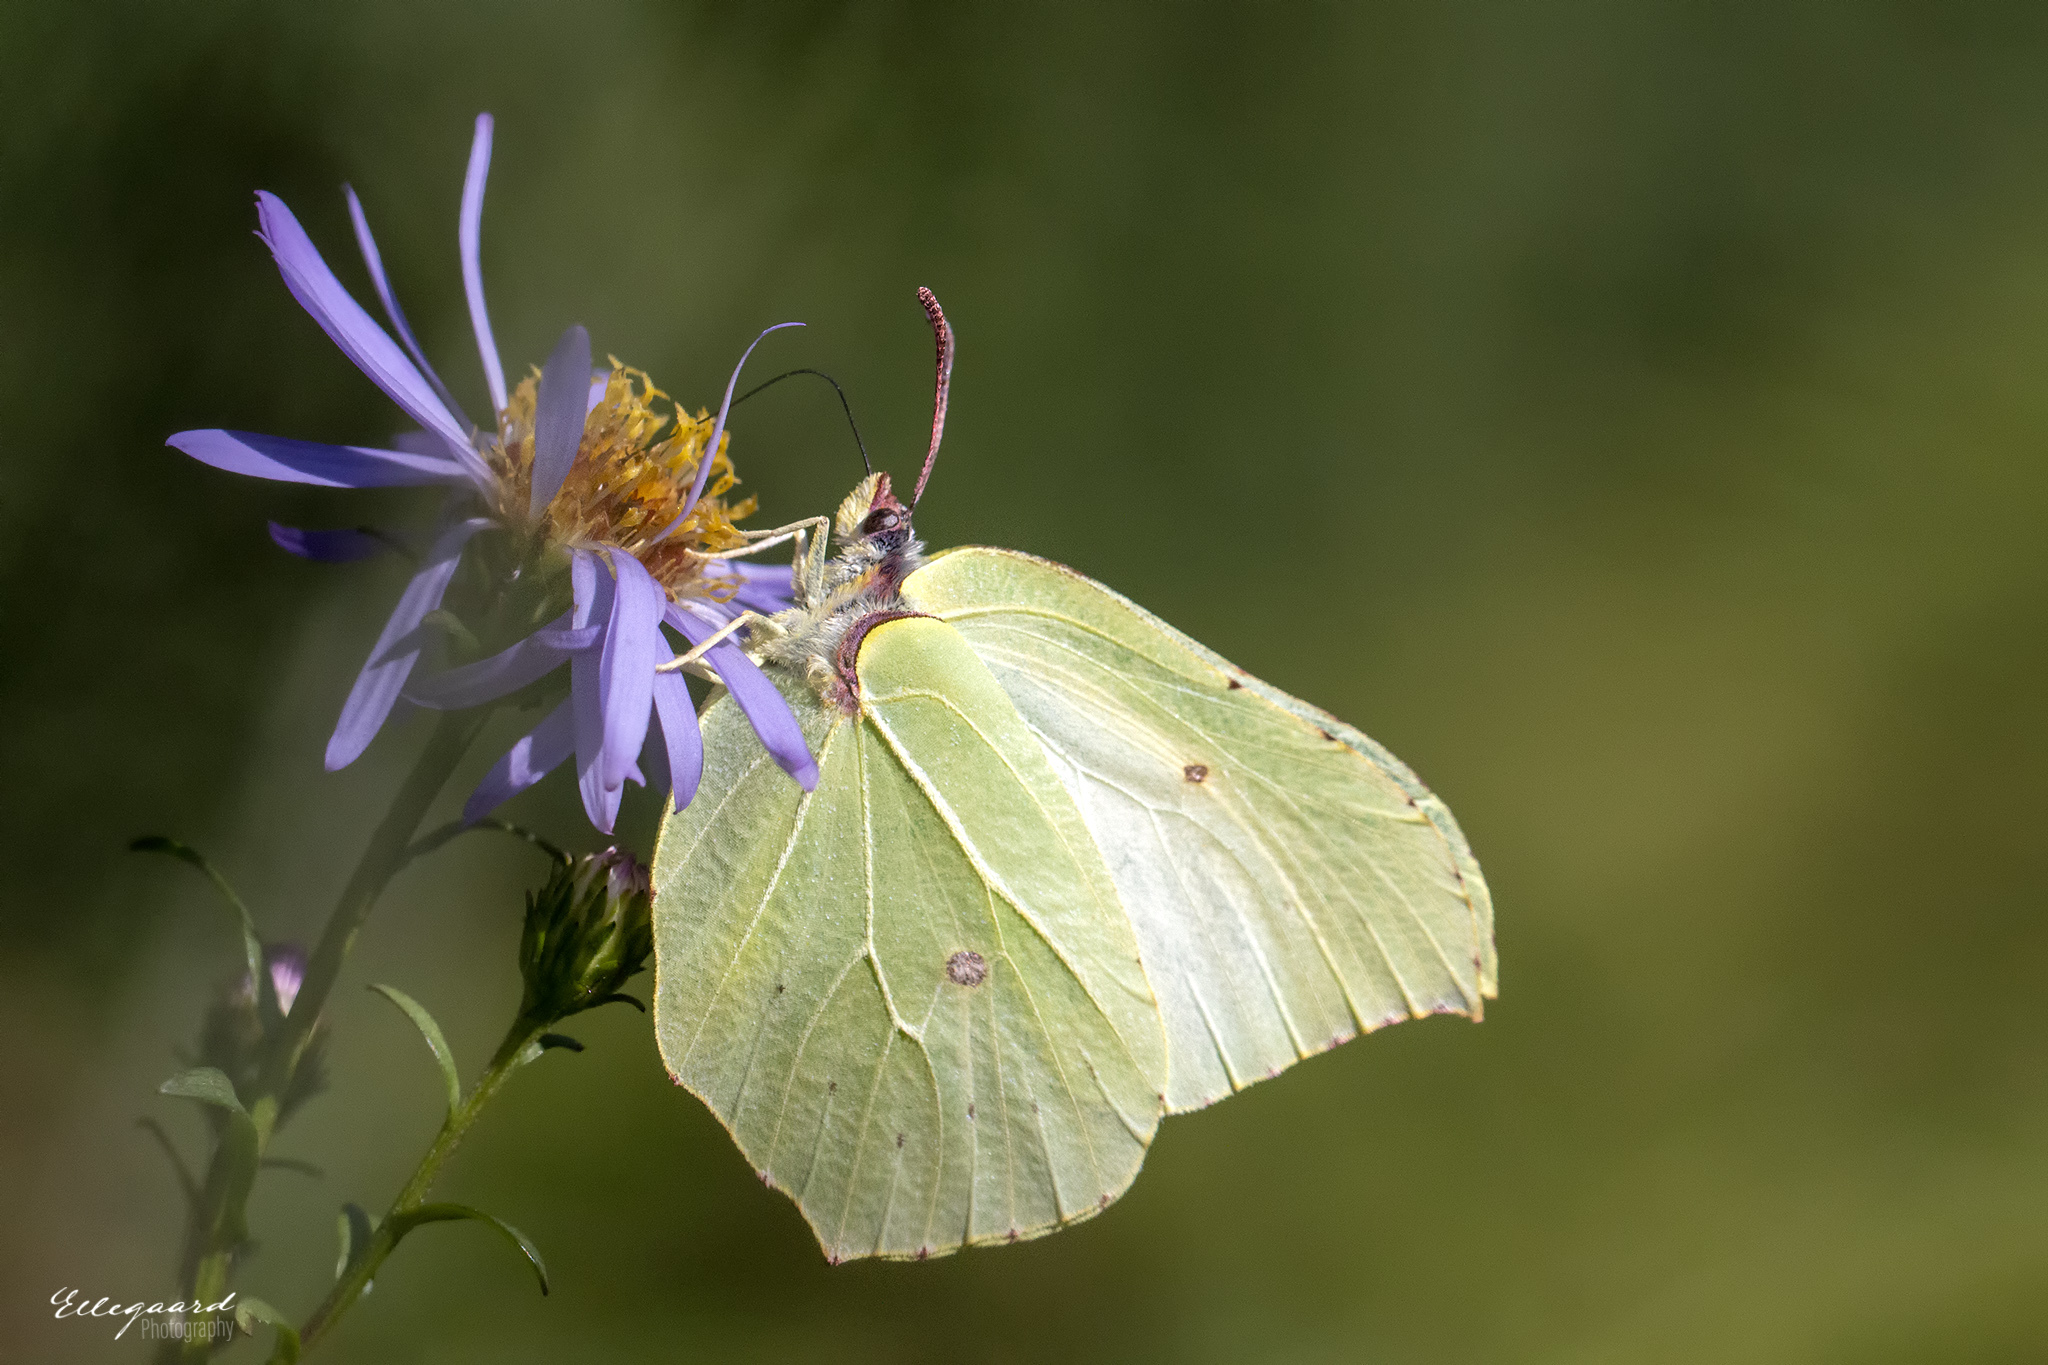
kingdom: Animalia
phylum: Arthropoda
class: Insecta
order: Lepidoptera
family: Pieridae
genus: Gonepteryx
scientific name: Gonepteryx rhamni
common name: Brimstone
